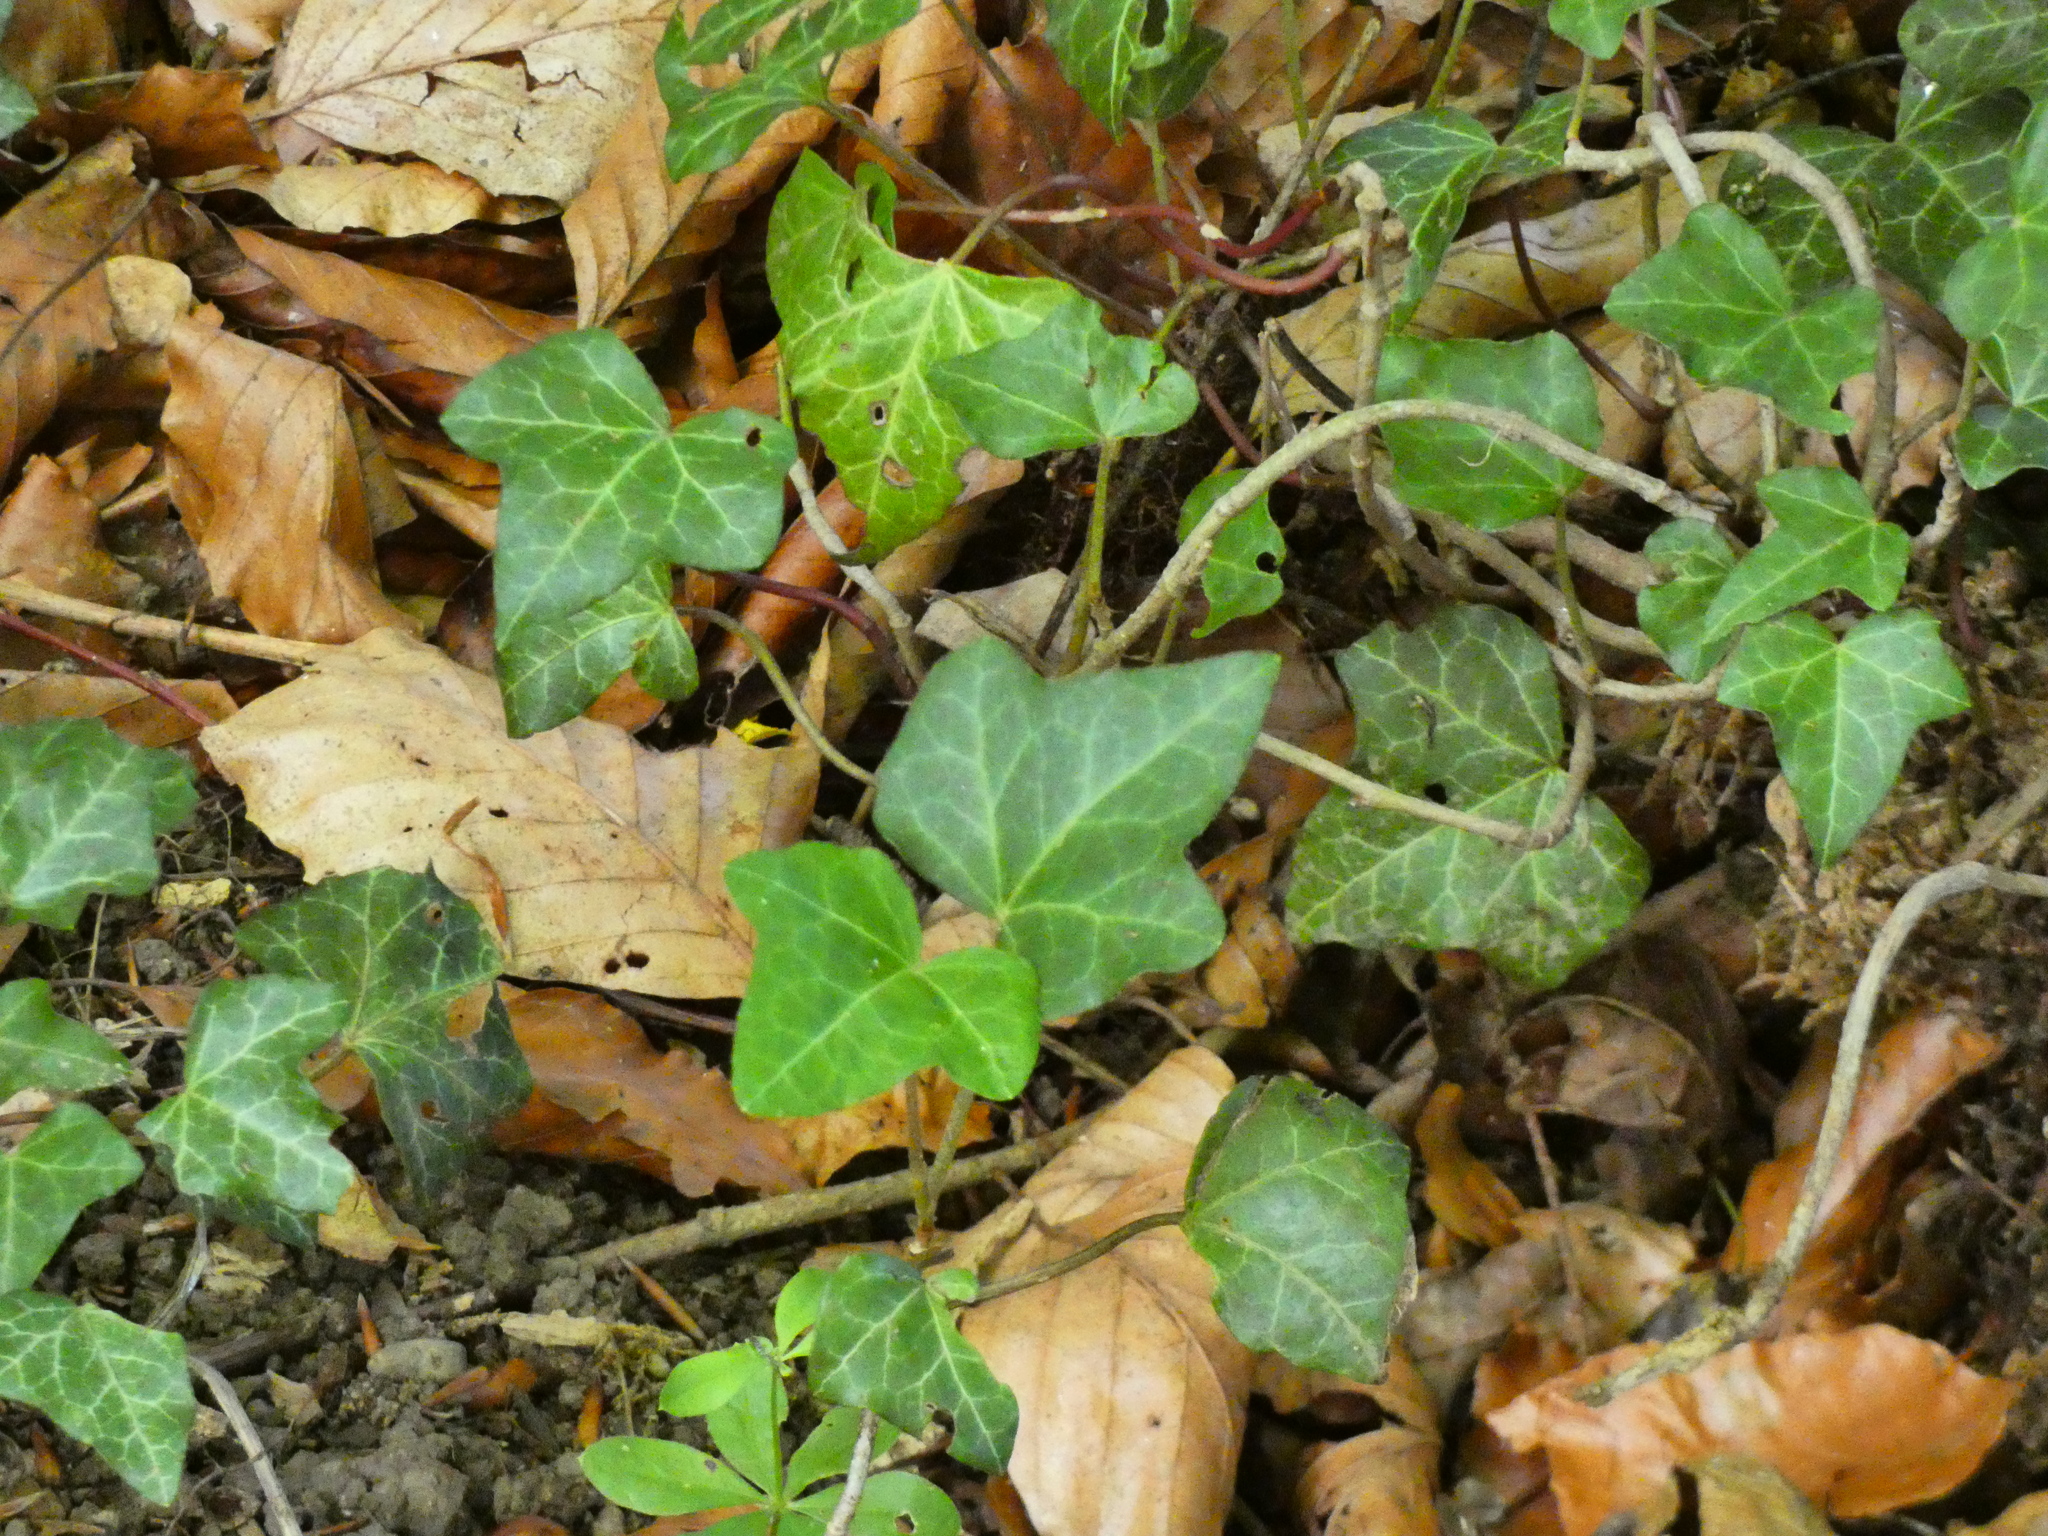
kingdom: Plantae
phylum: Tracheophyta
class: Magnoliopsida
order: Apiales
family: Araliaceae
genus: Hedera
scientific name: Hedera helix
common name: Ivy
